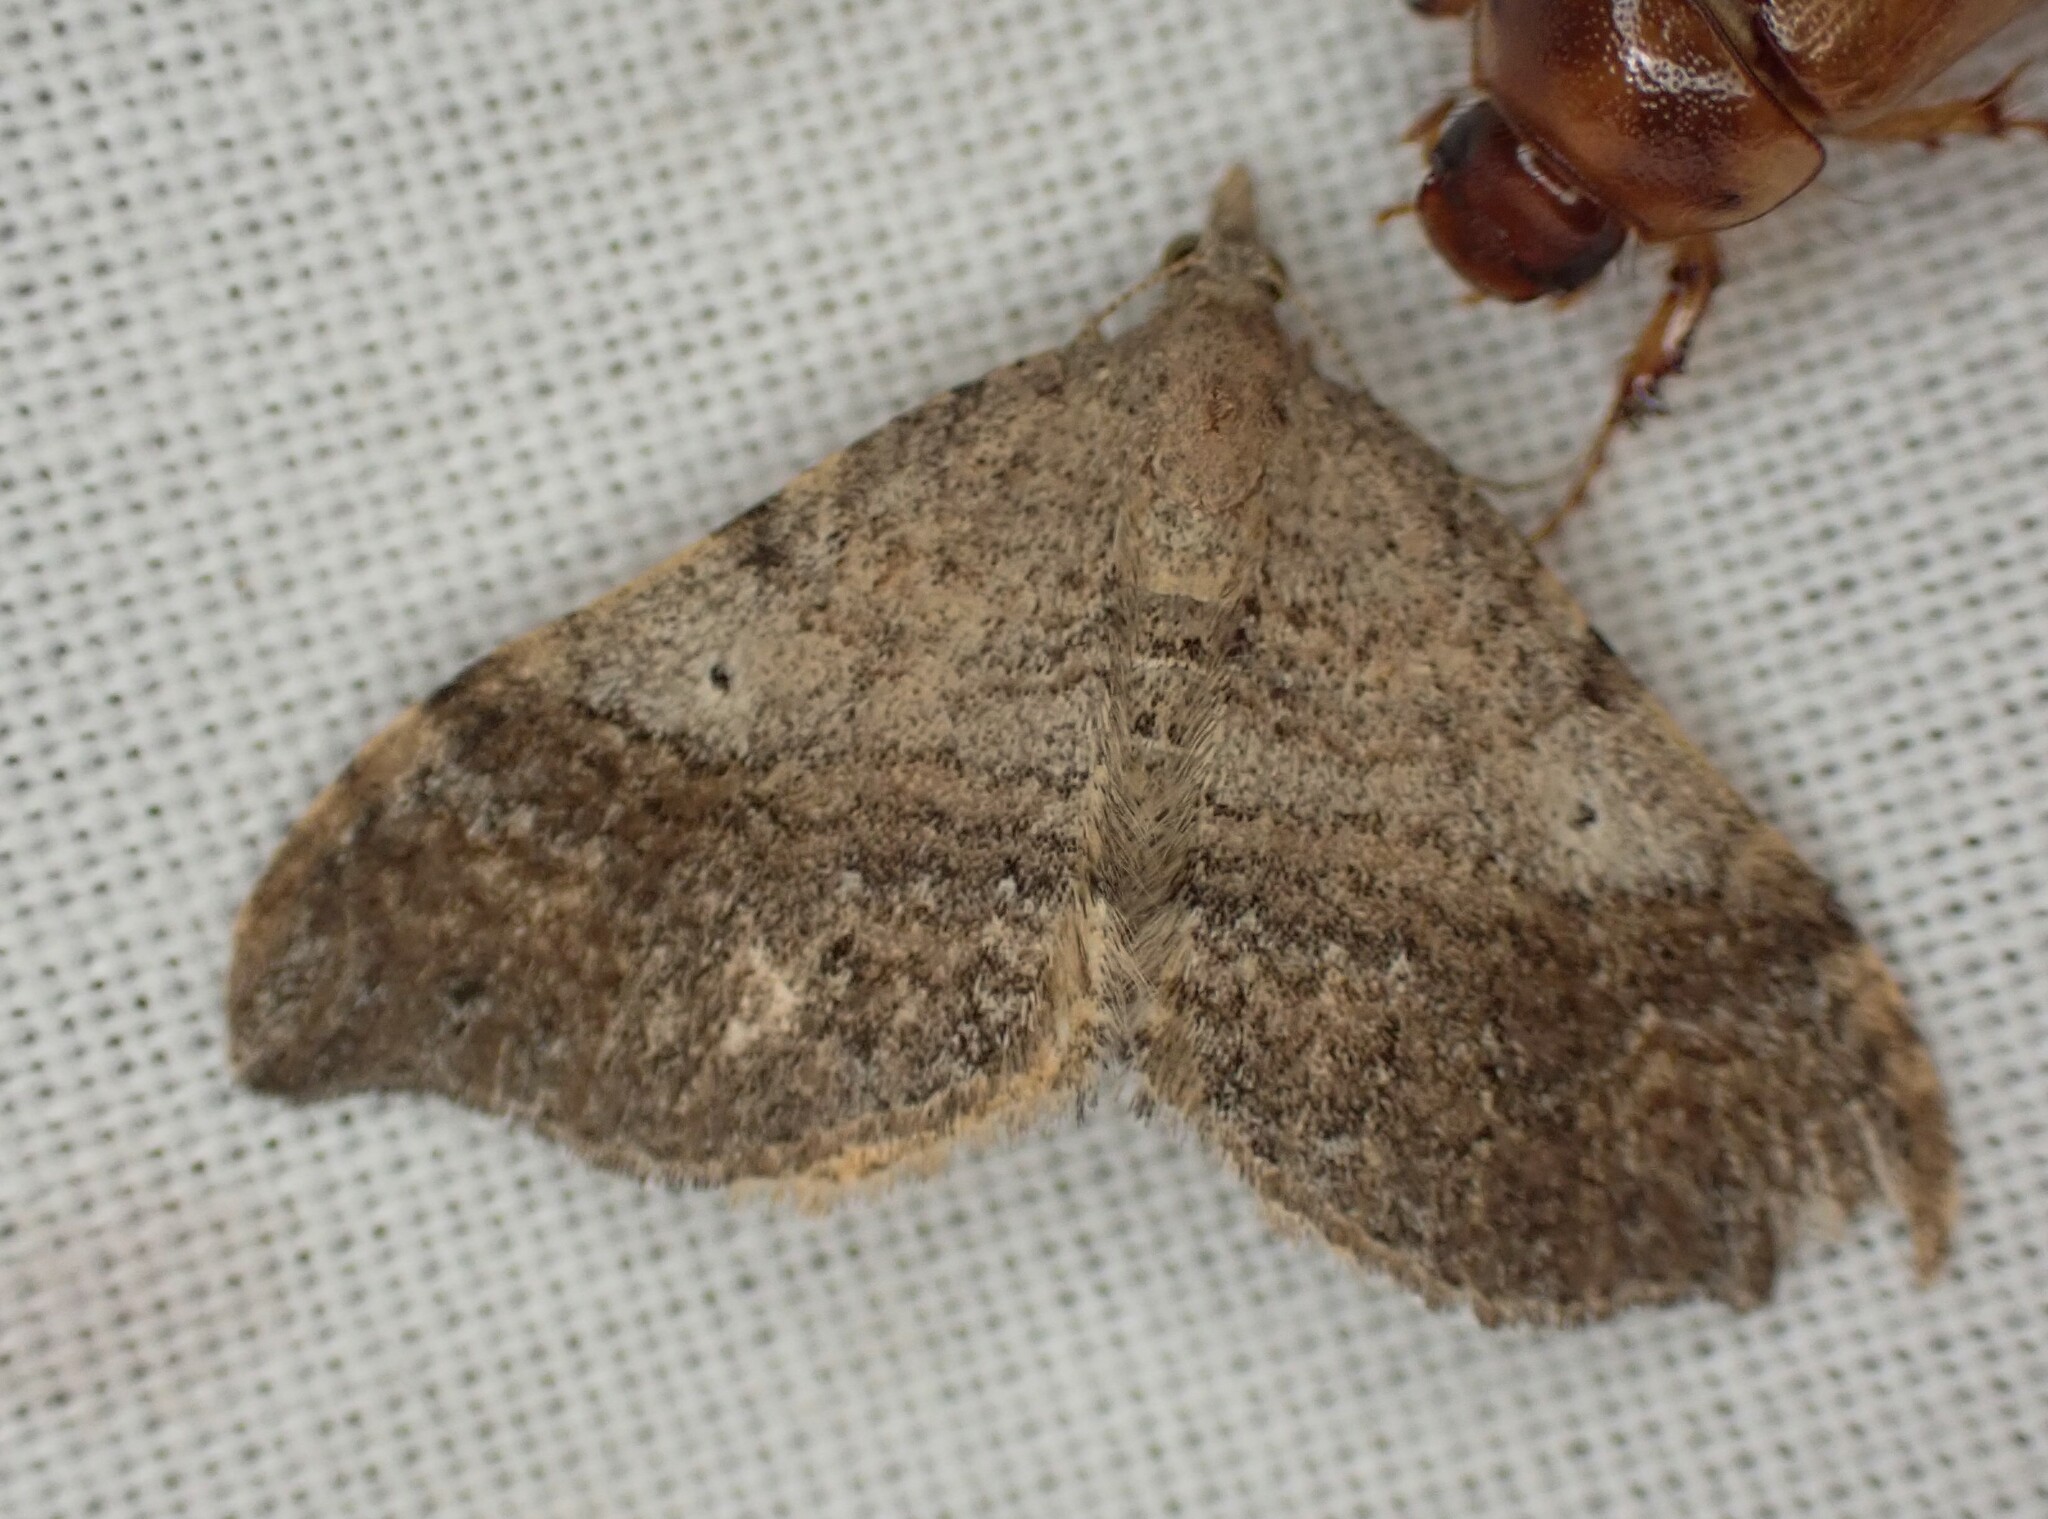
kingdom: Animalia
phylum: Arthropoda
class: Insecta
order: Lepidoptera
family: Geometridae
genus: Homodotis
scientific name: Homodotis megaspilata
